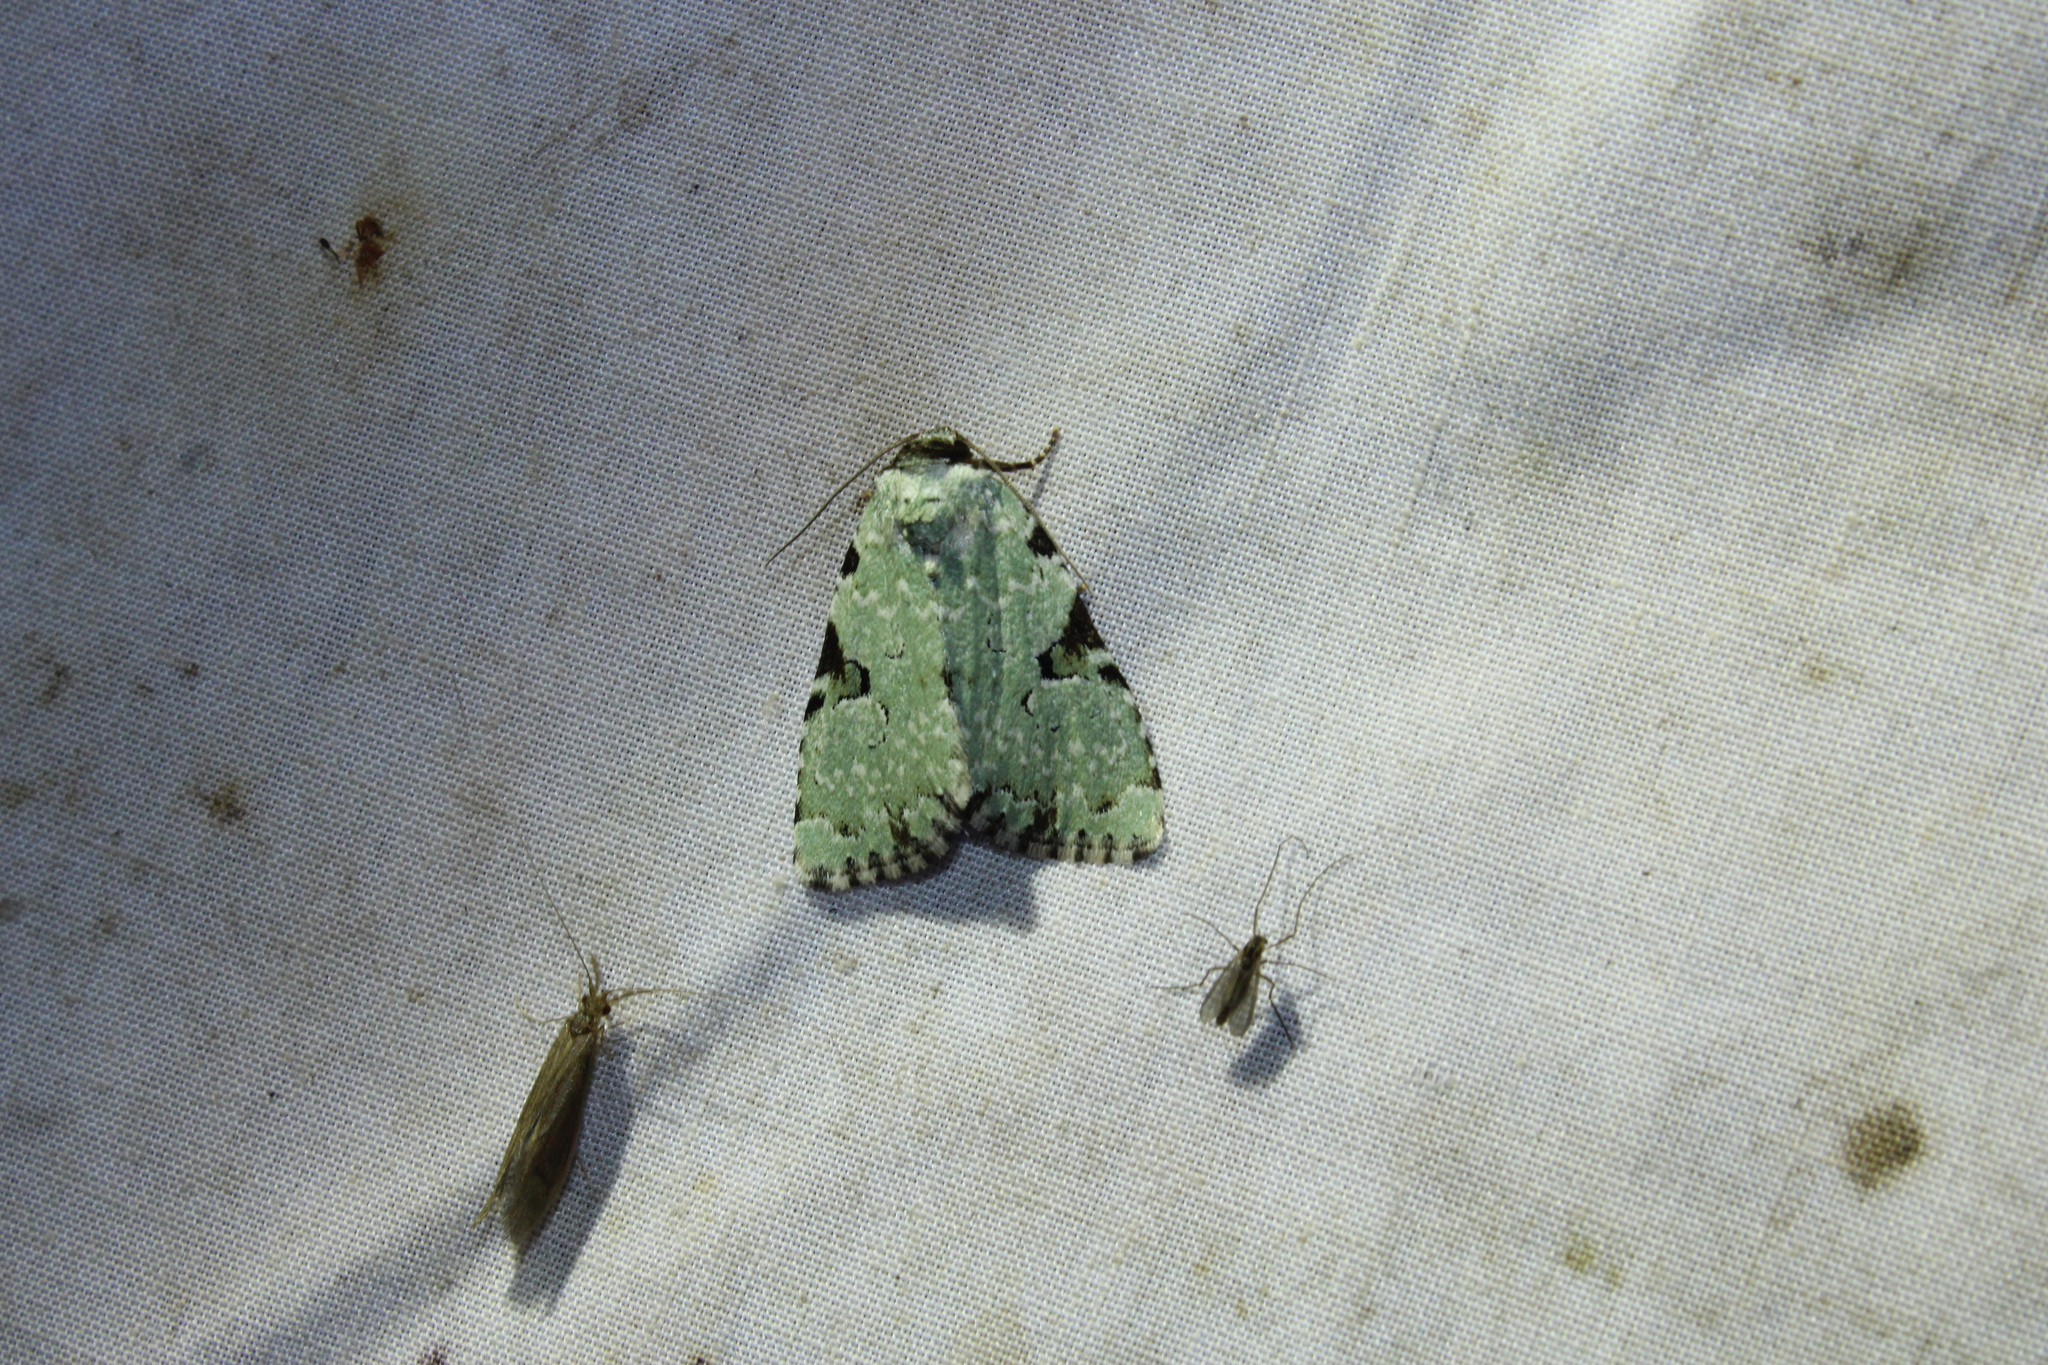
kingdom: Animalia
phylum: Arthropoda
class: Insecta
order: Lepidoptera
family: Noctuidae
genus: Leuconycta
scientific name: Leuconycta diphteroides
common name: Green leuconycta moth
